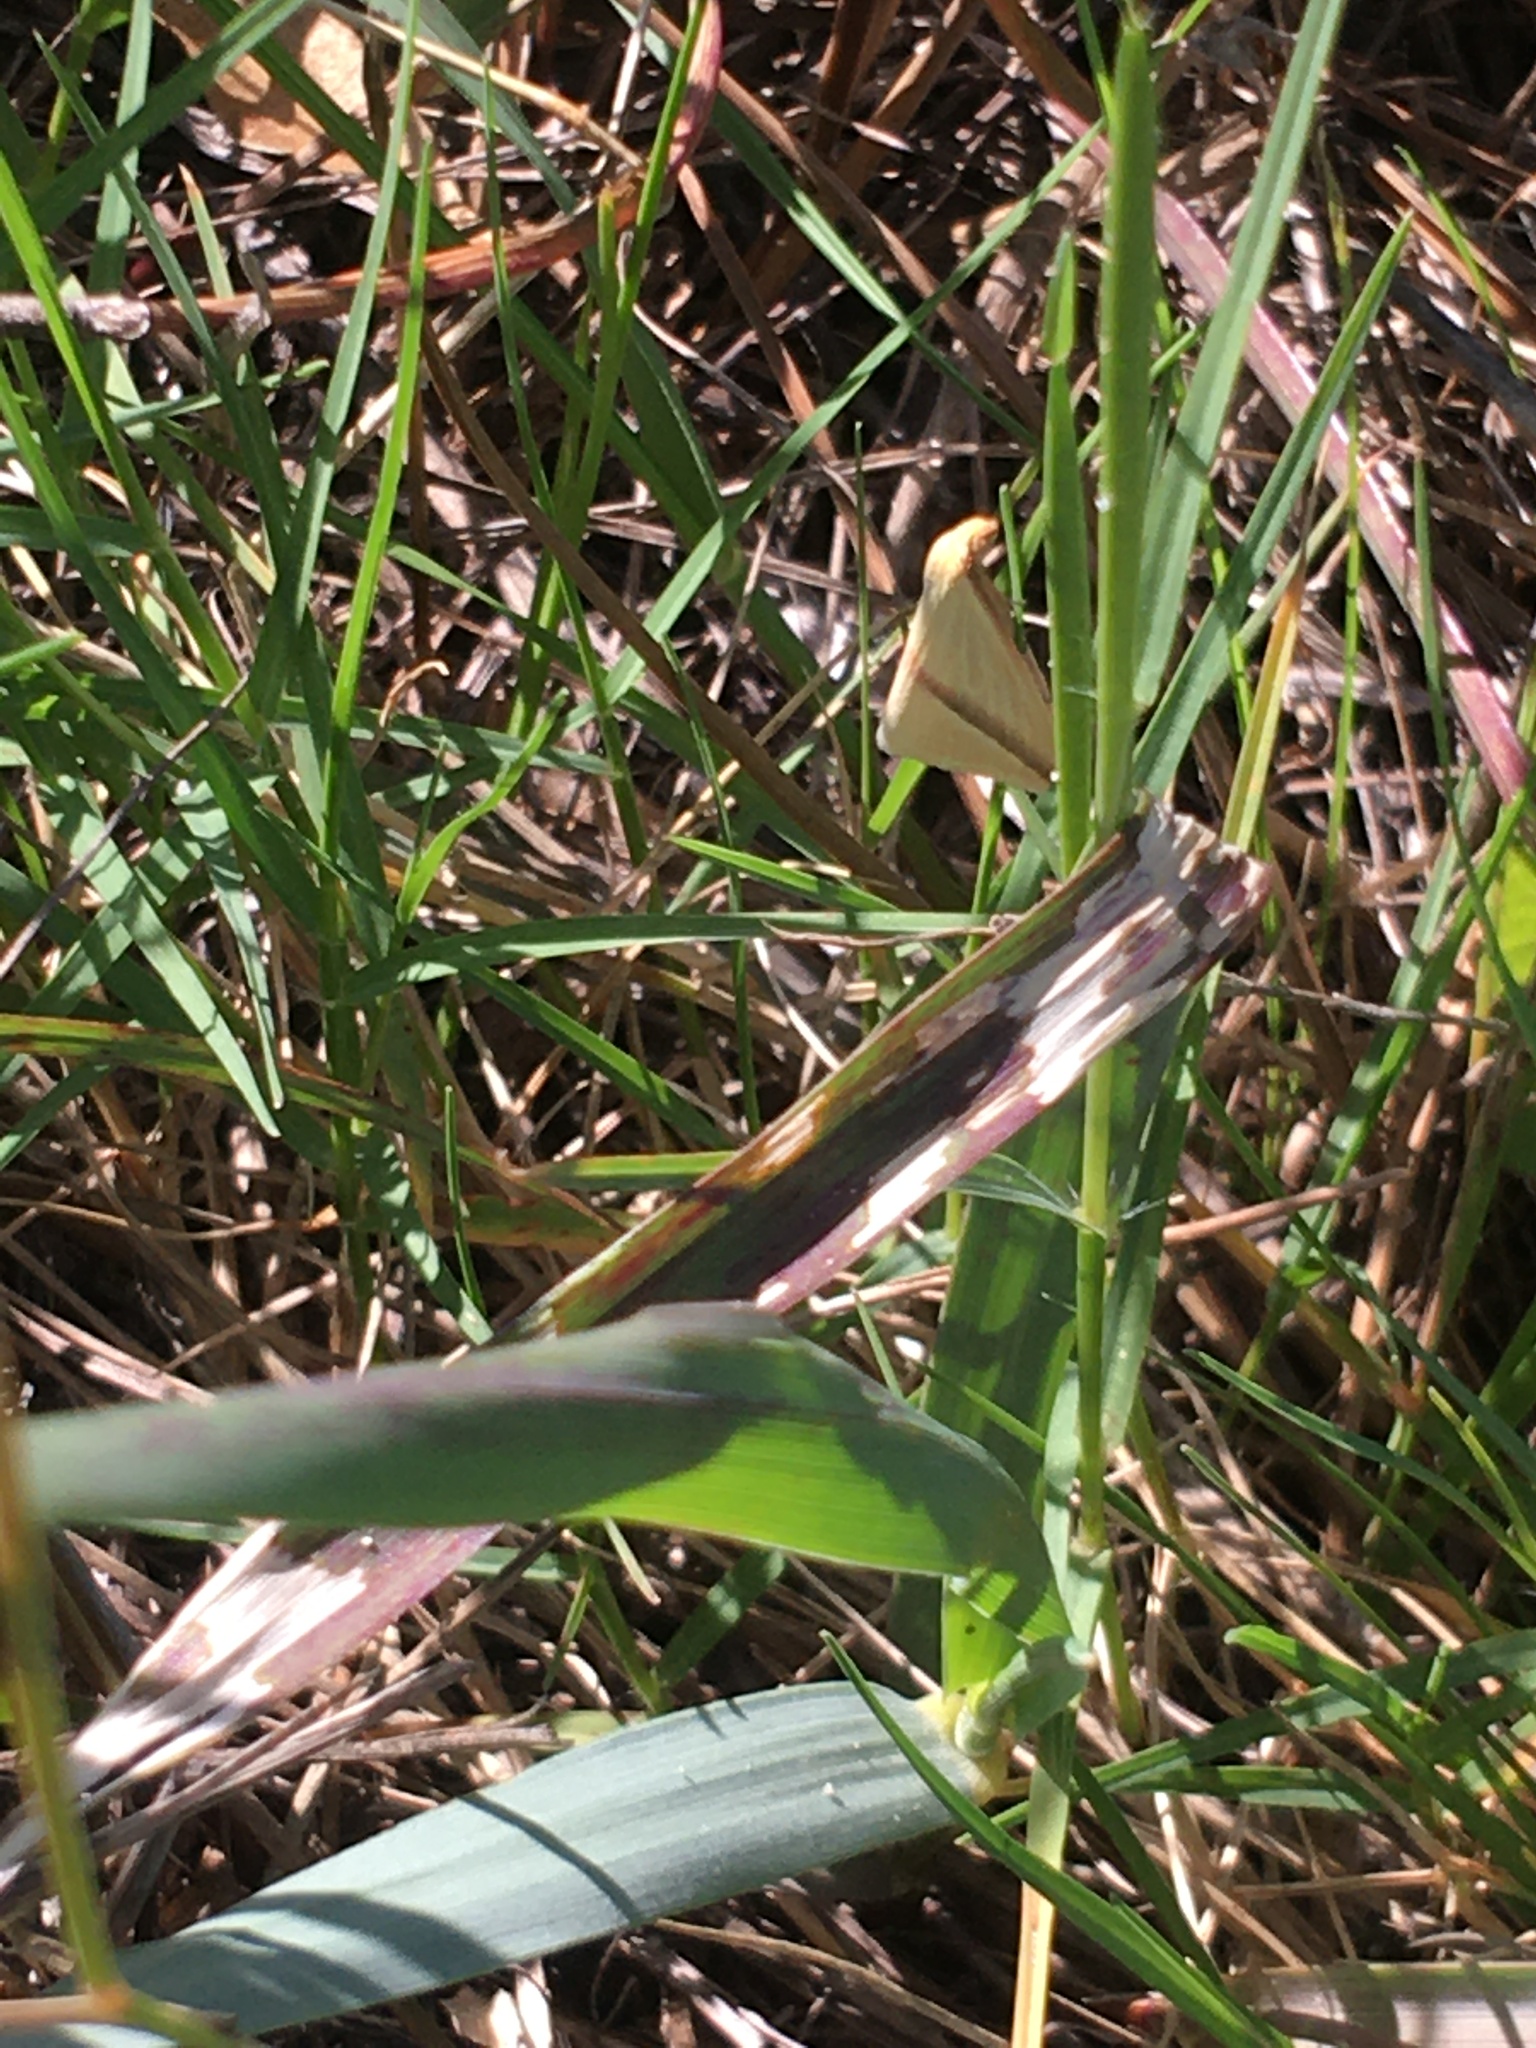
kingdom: Animalia
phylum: Arthropoda
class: Insecta
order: Lepidoptera
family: Geometridae
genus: Rhodometra
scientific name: Rhodometra sacraria
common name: Vestal
